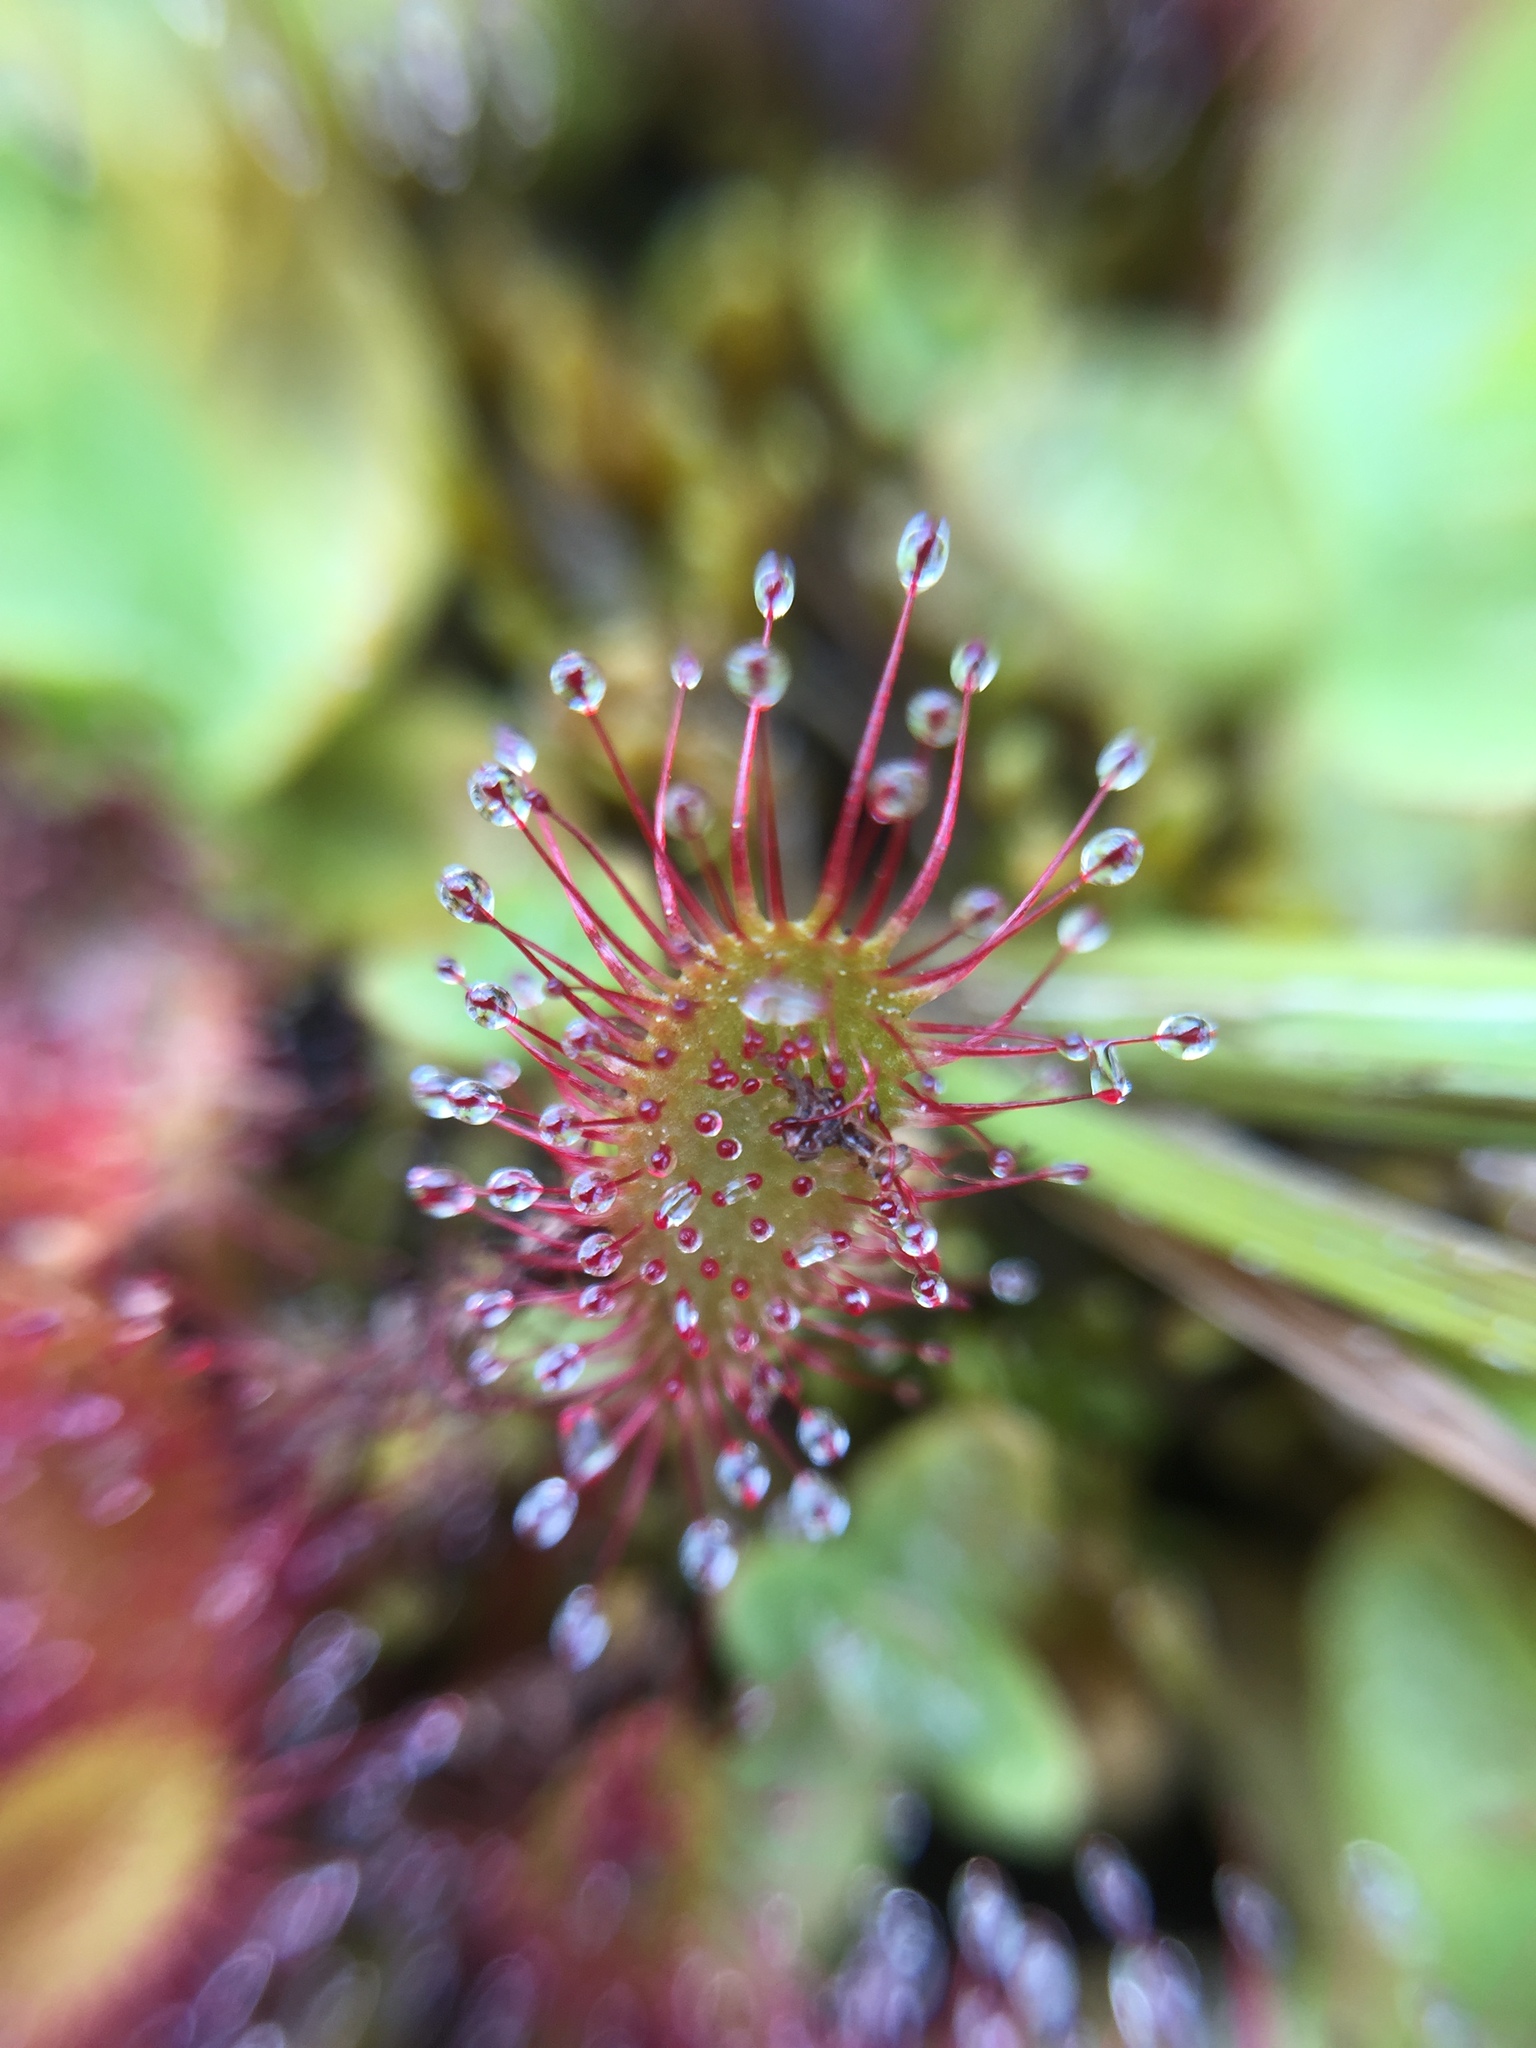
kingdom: Plantae
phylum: Tracheophyta
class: Magnoliopsida
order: Caryophyllales
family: Droseraceae
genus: Drosera
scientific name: Drosera anglica
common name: Great sundew
